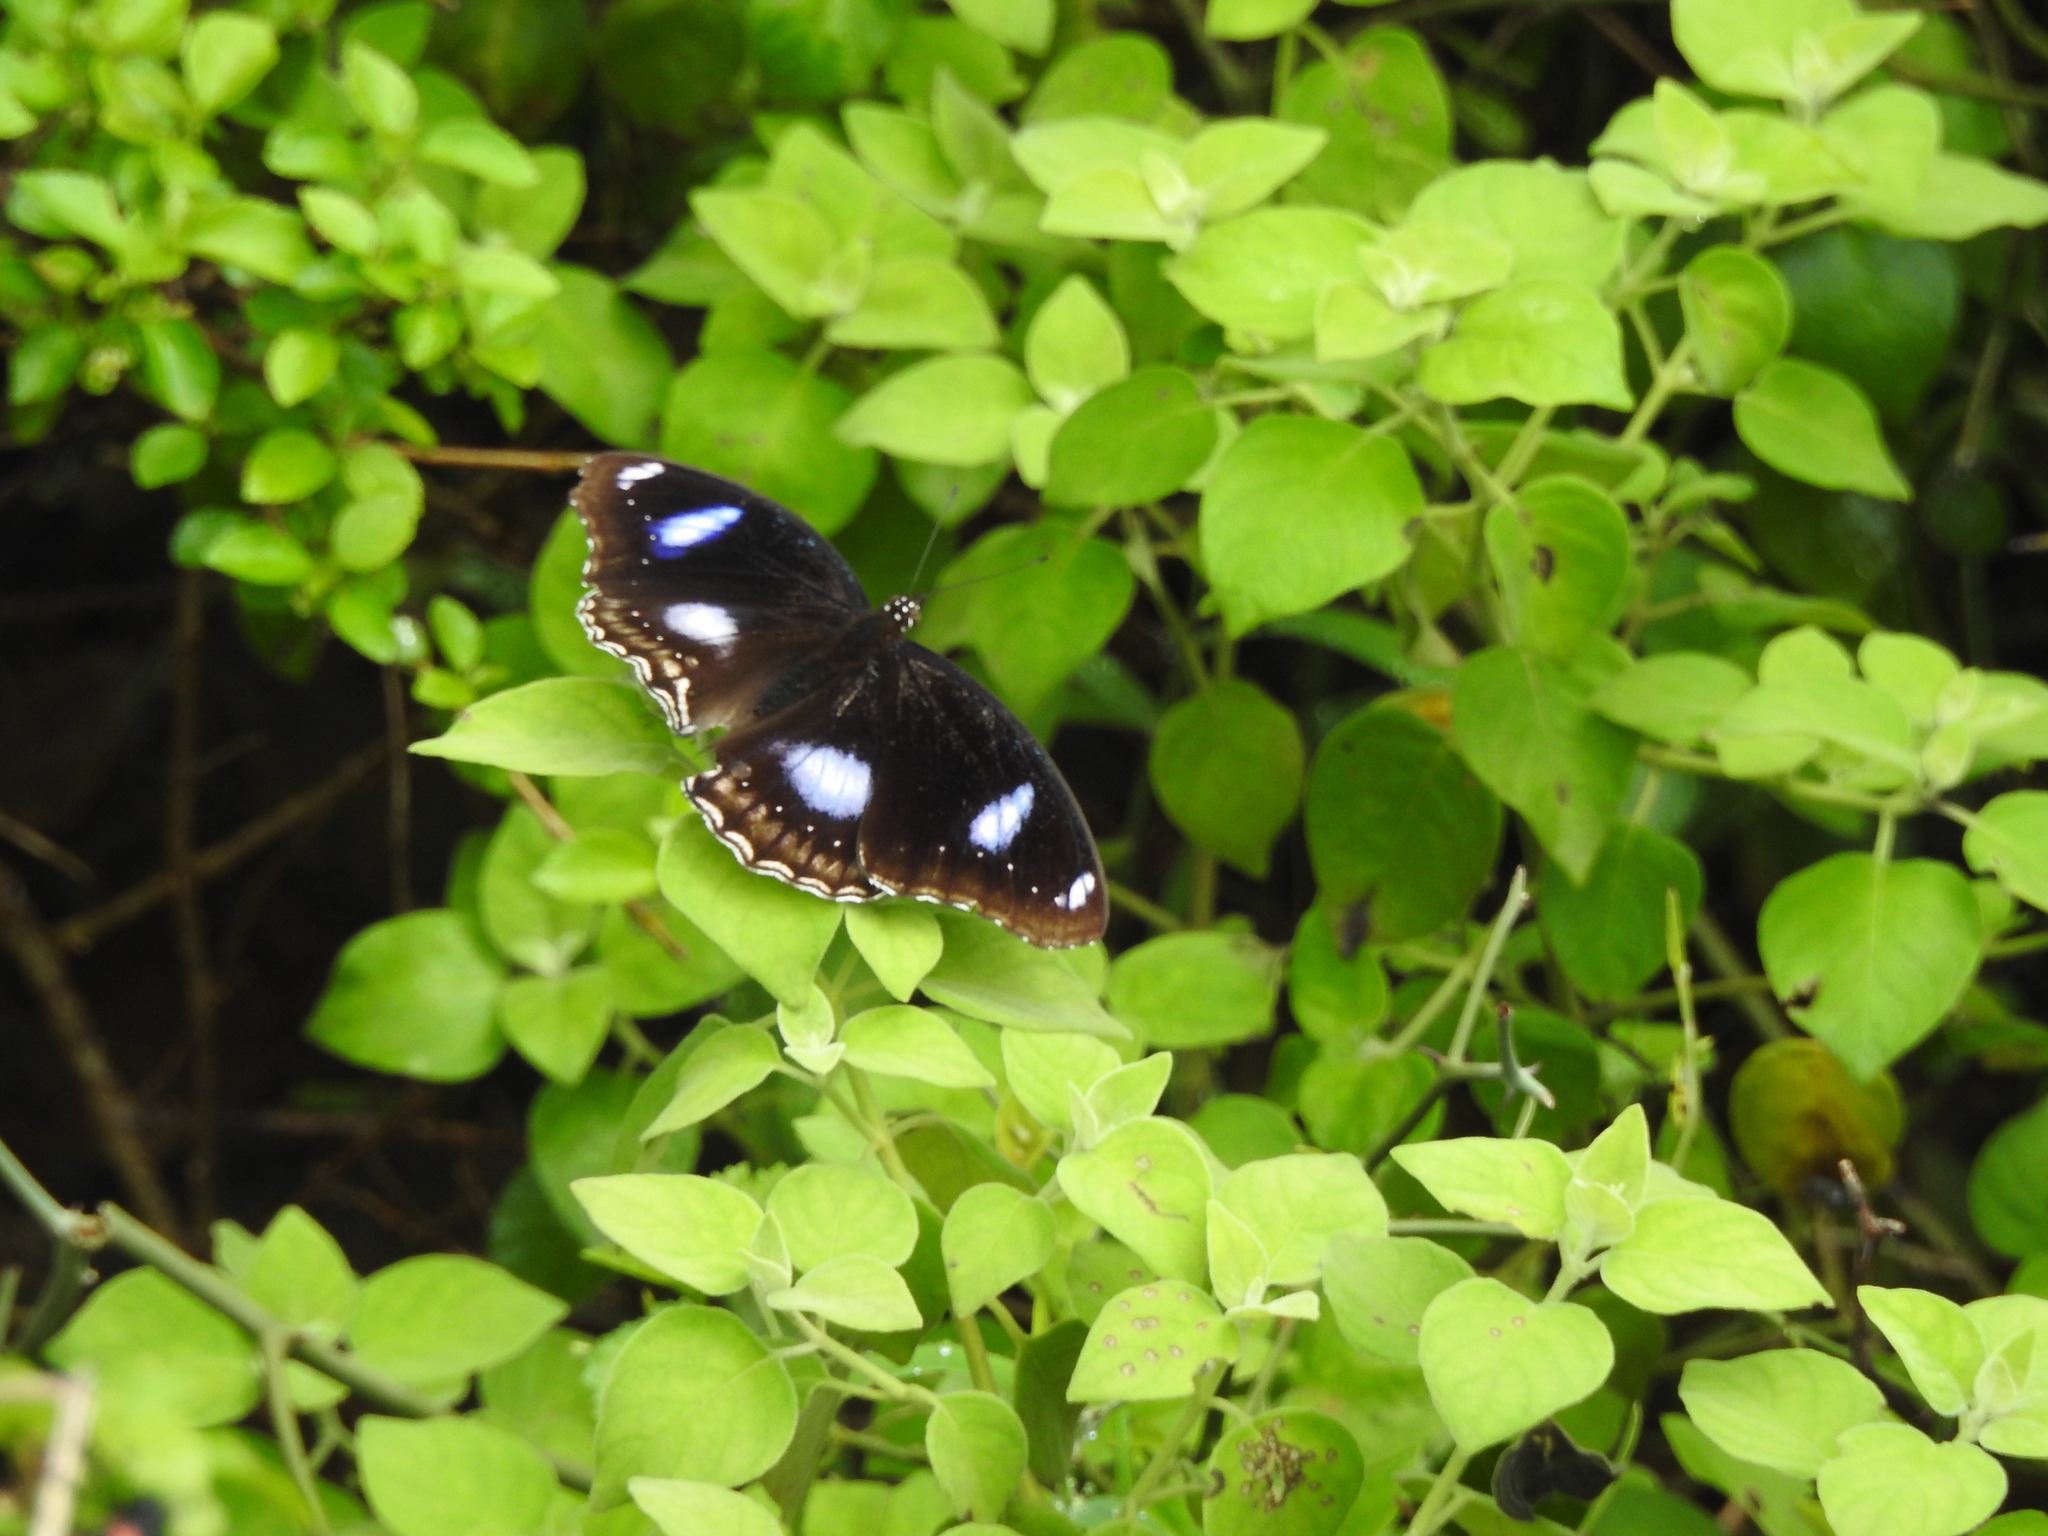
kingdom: Animalia
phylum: Arthropoda
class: Insecta
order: Lepidoptera
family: Nymphalidae
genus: Hypolimnas
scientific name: Hypolimnas bolina
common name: Great eggfly
